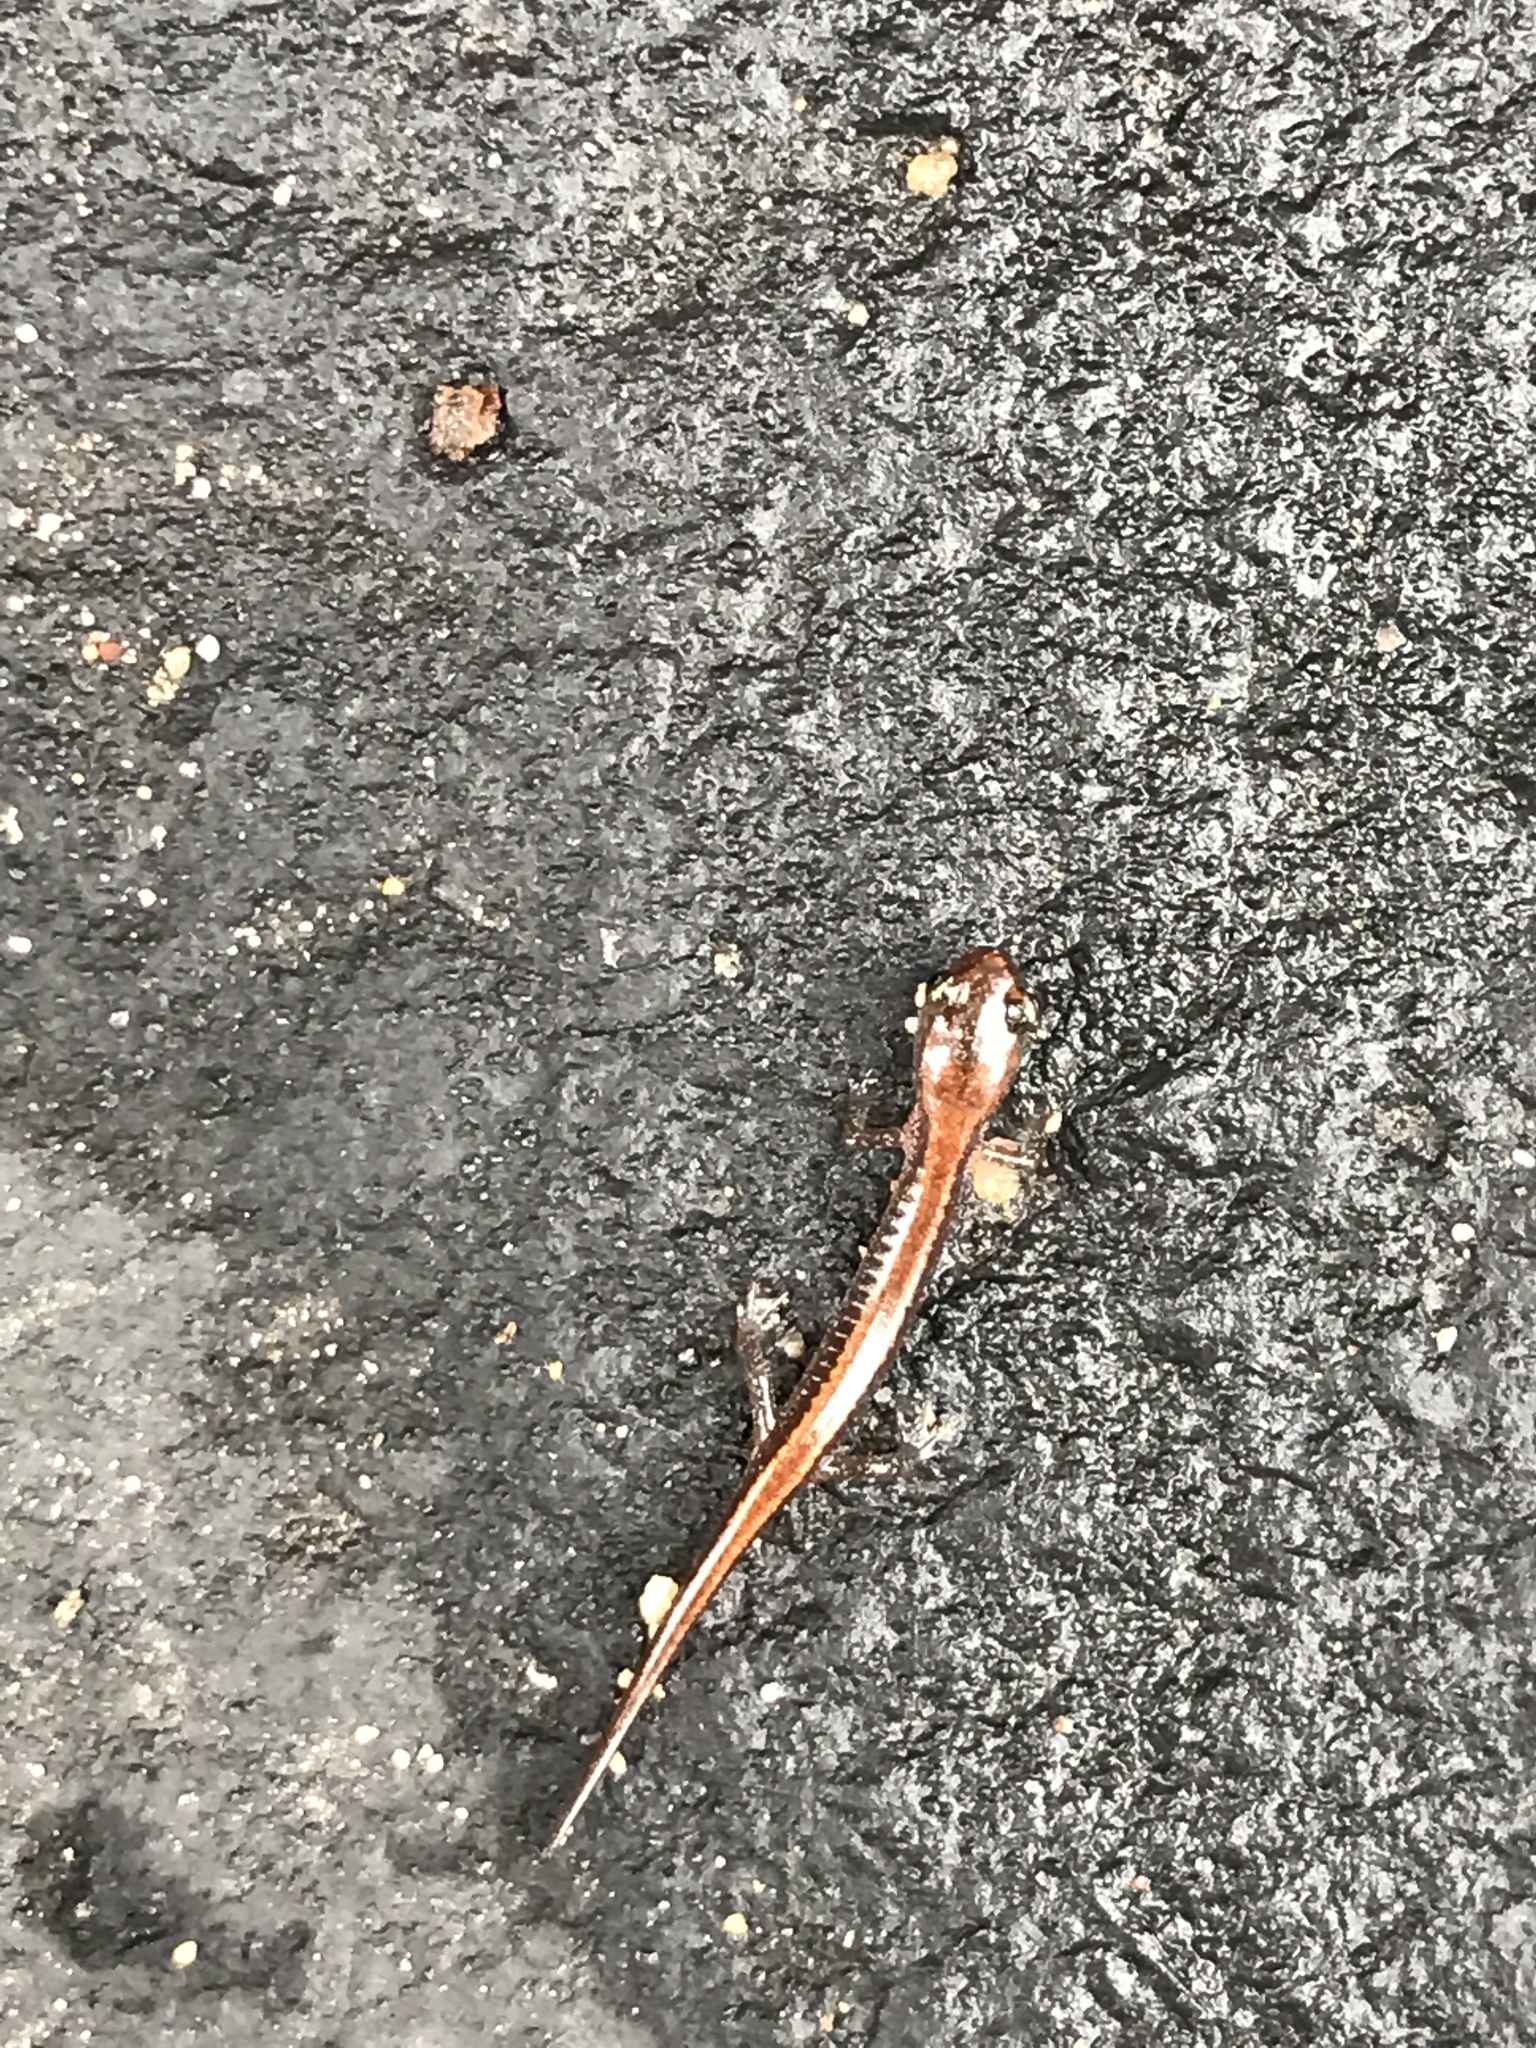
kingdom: Animalia
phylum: Chordata
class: Amphibia
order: Caudata
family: Plethodontidae
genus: Plethodon
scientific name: Plethodon cinereus
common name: Redback salamander
